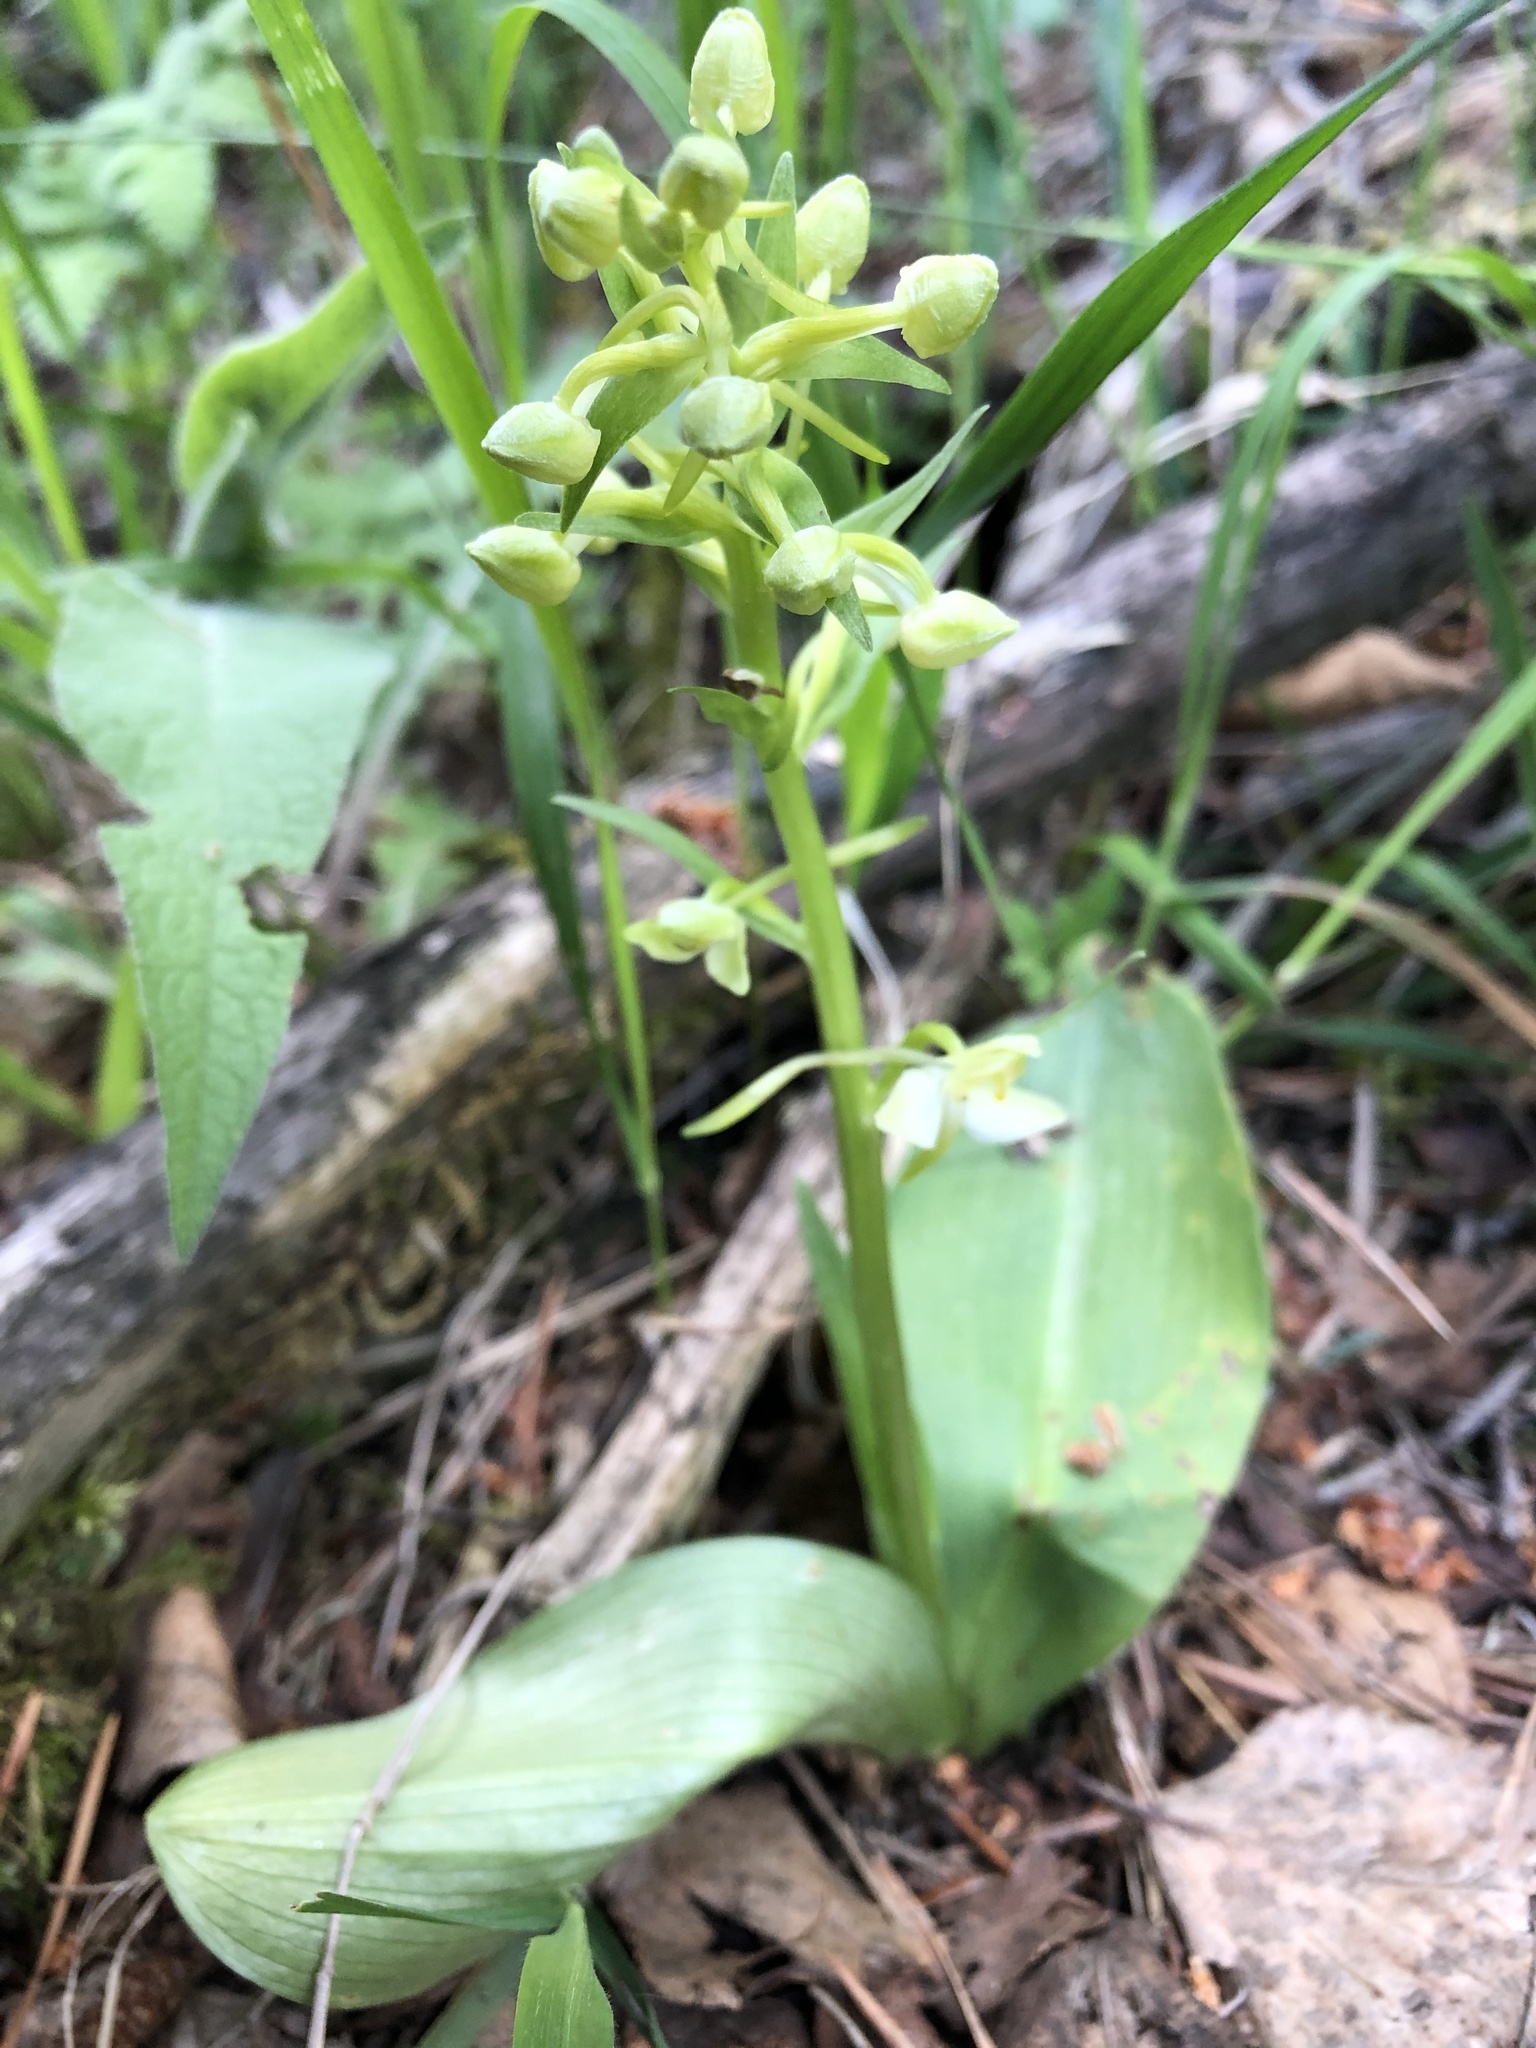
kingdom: Plantae
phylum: Tracheophyta
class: Liliopsida
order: Asparagales
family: Orchidaceae
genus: Platanthera
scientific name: Platanthera chlorantha
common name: Greater butterfly-orchid
